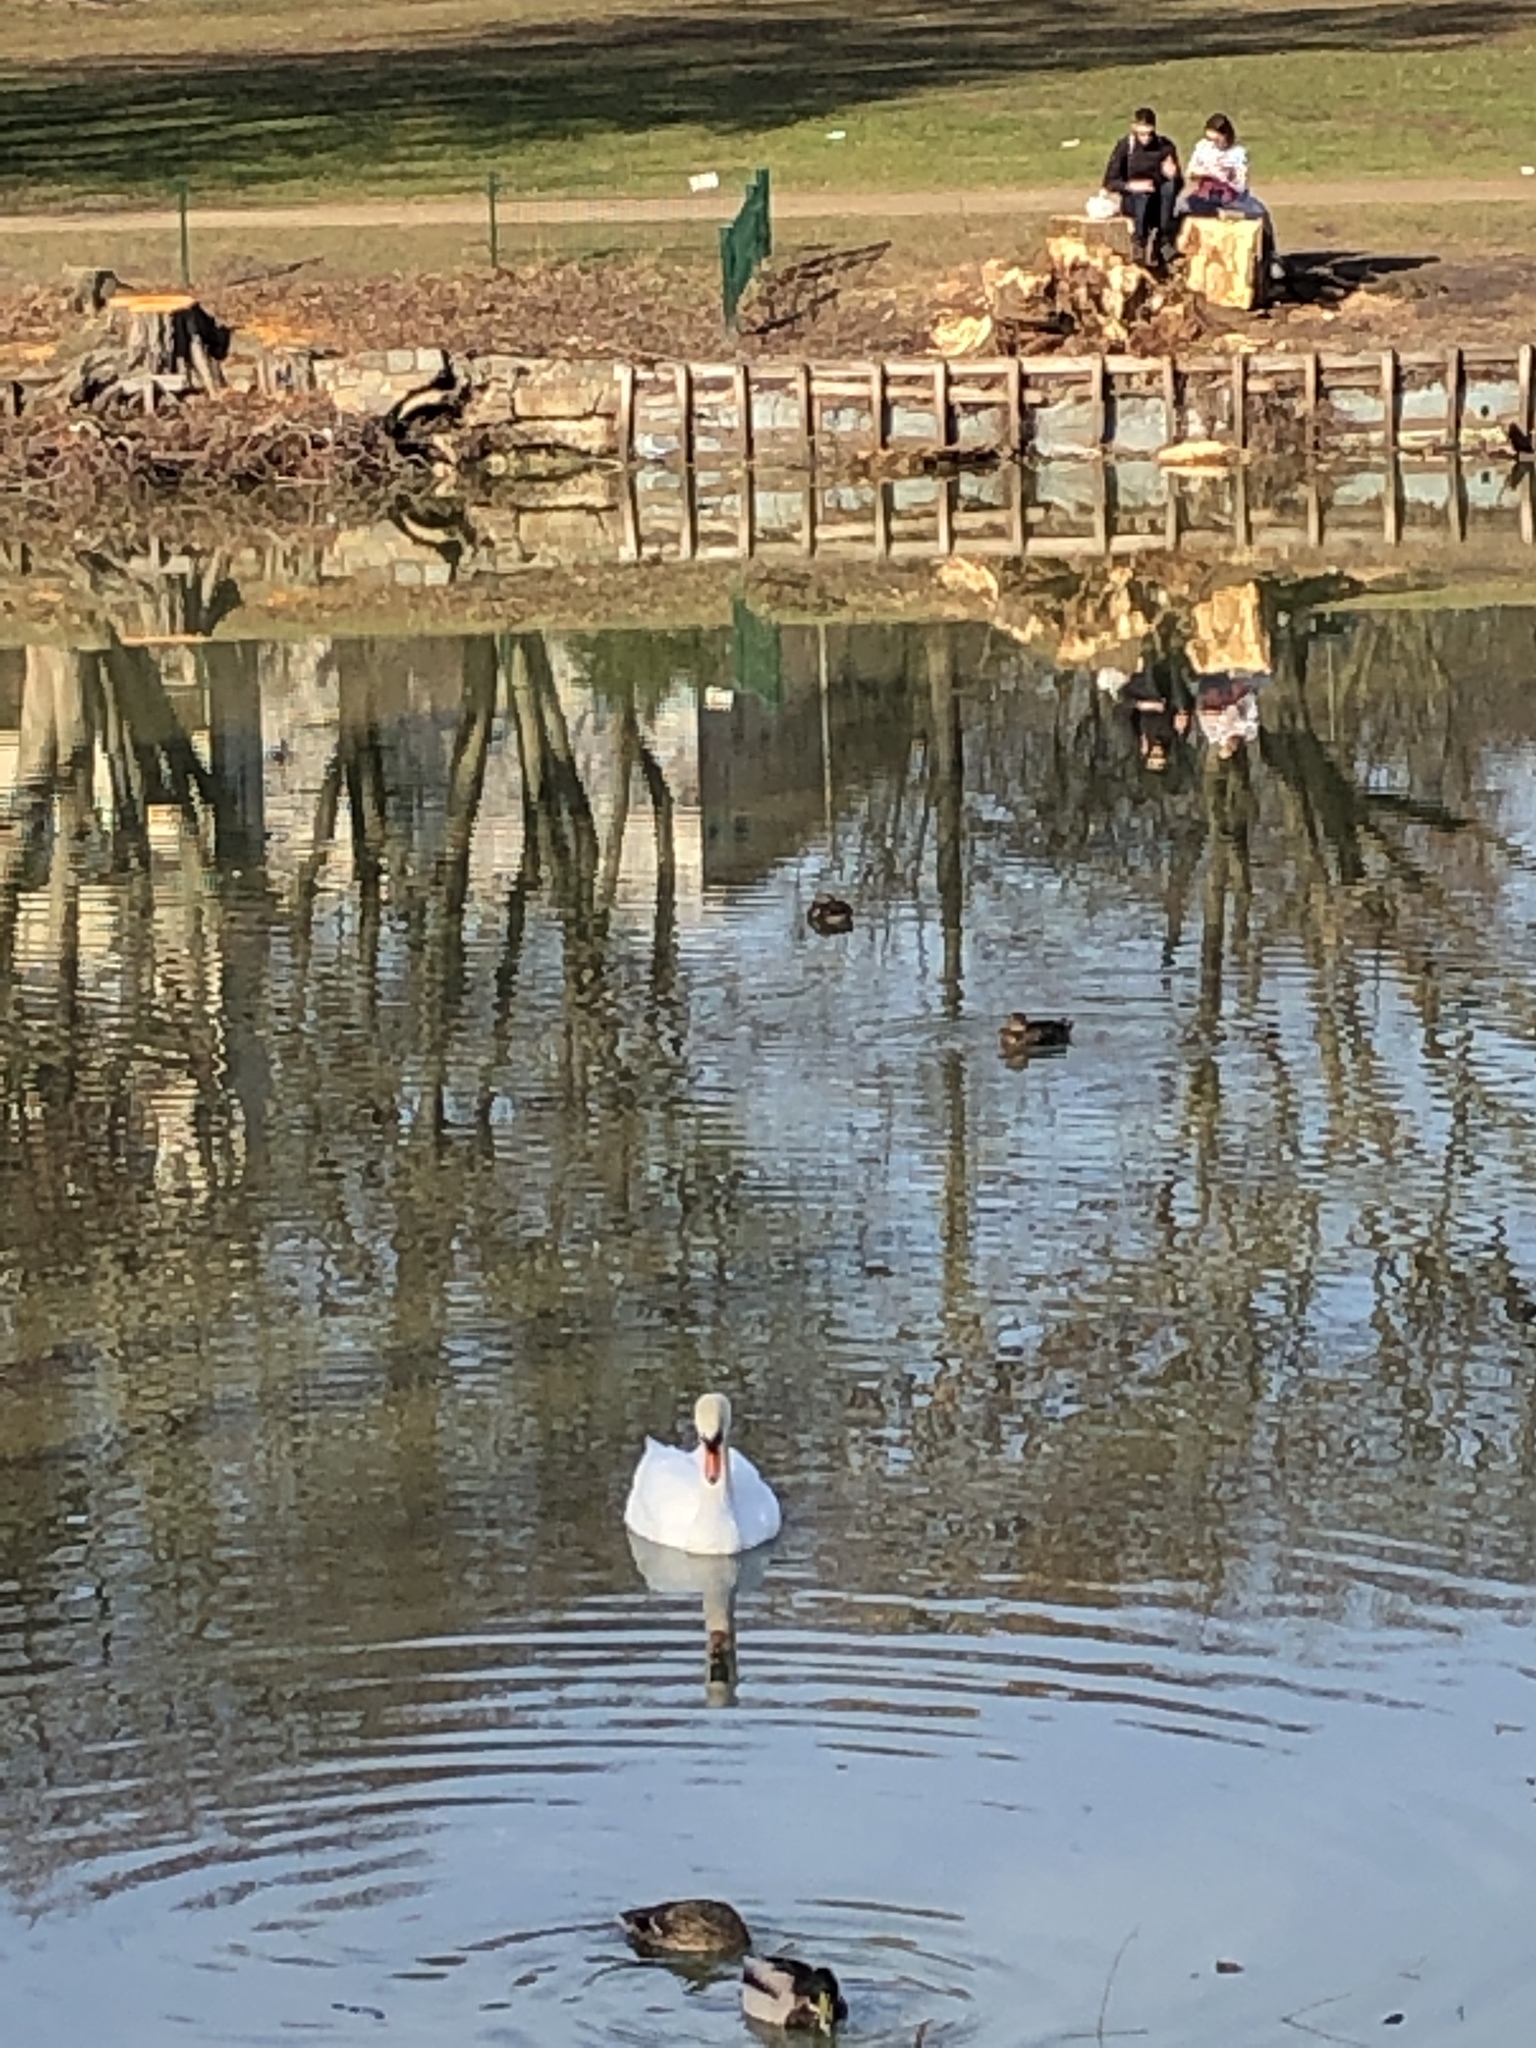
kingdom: Animalia
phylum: Chordata
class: Aves
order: Anseriformes
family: Anatidae
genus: Cygnus
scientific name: Cygnus olor
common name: Mute swan
